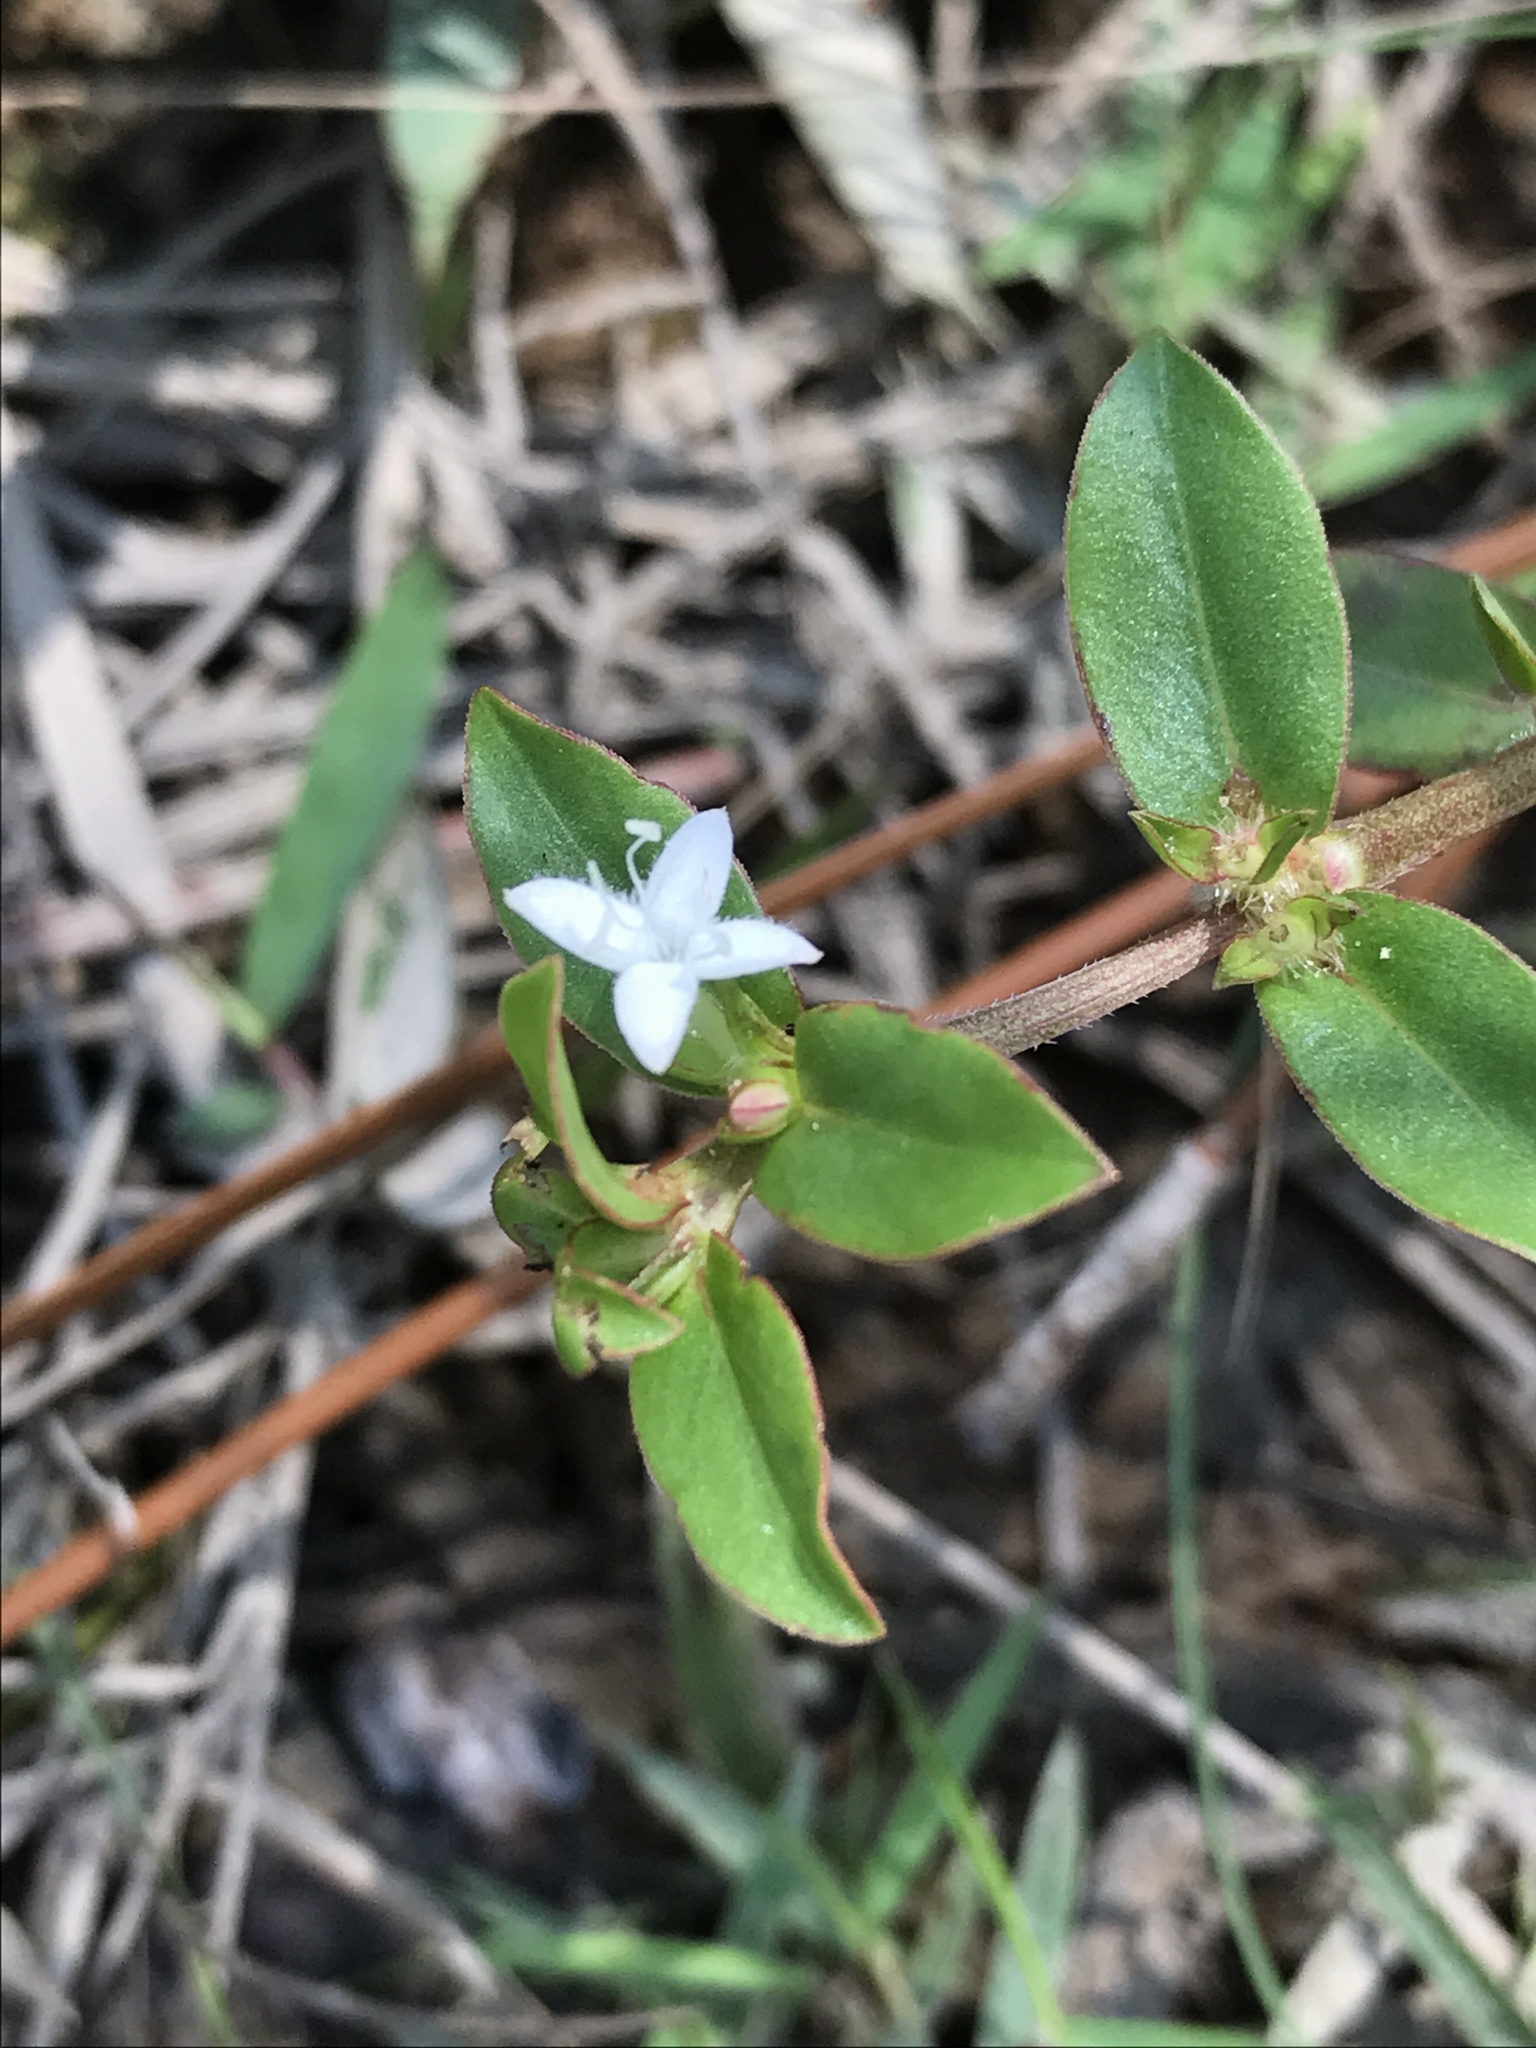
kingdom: Plantae
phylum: Tracheophyta
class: Magnoliopsida
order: Gentianales
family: Rubiaceae
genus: Diodia
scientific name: Diodia virginiana
